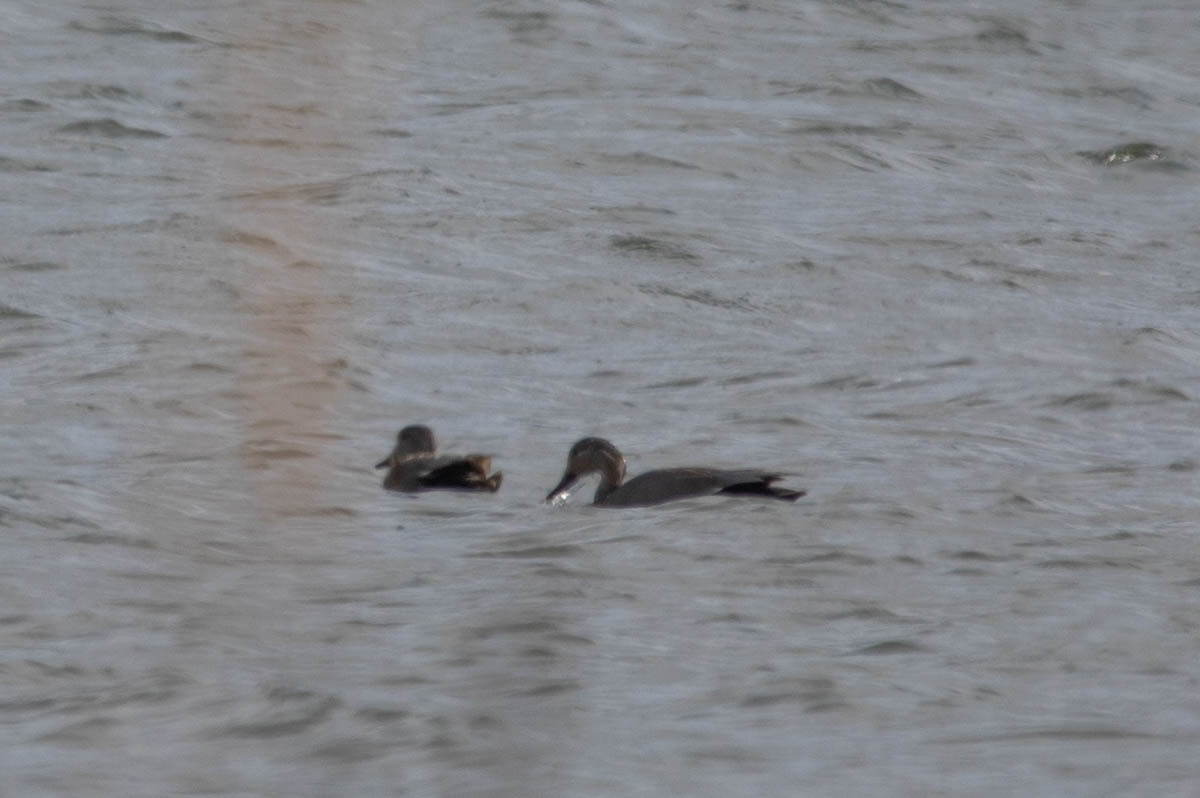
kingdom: Animalia
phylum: Chordata
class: Aves
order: Anseriformes
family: Anatidae
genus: Mareca
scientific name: Mareca strepera
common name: Gadwall
